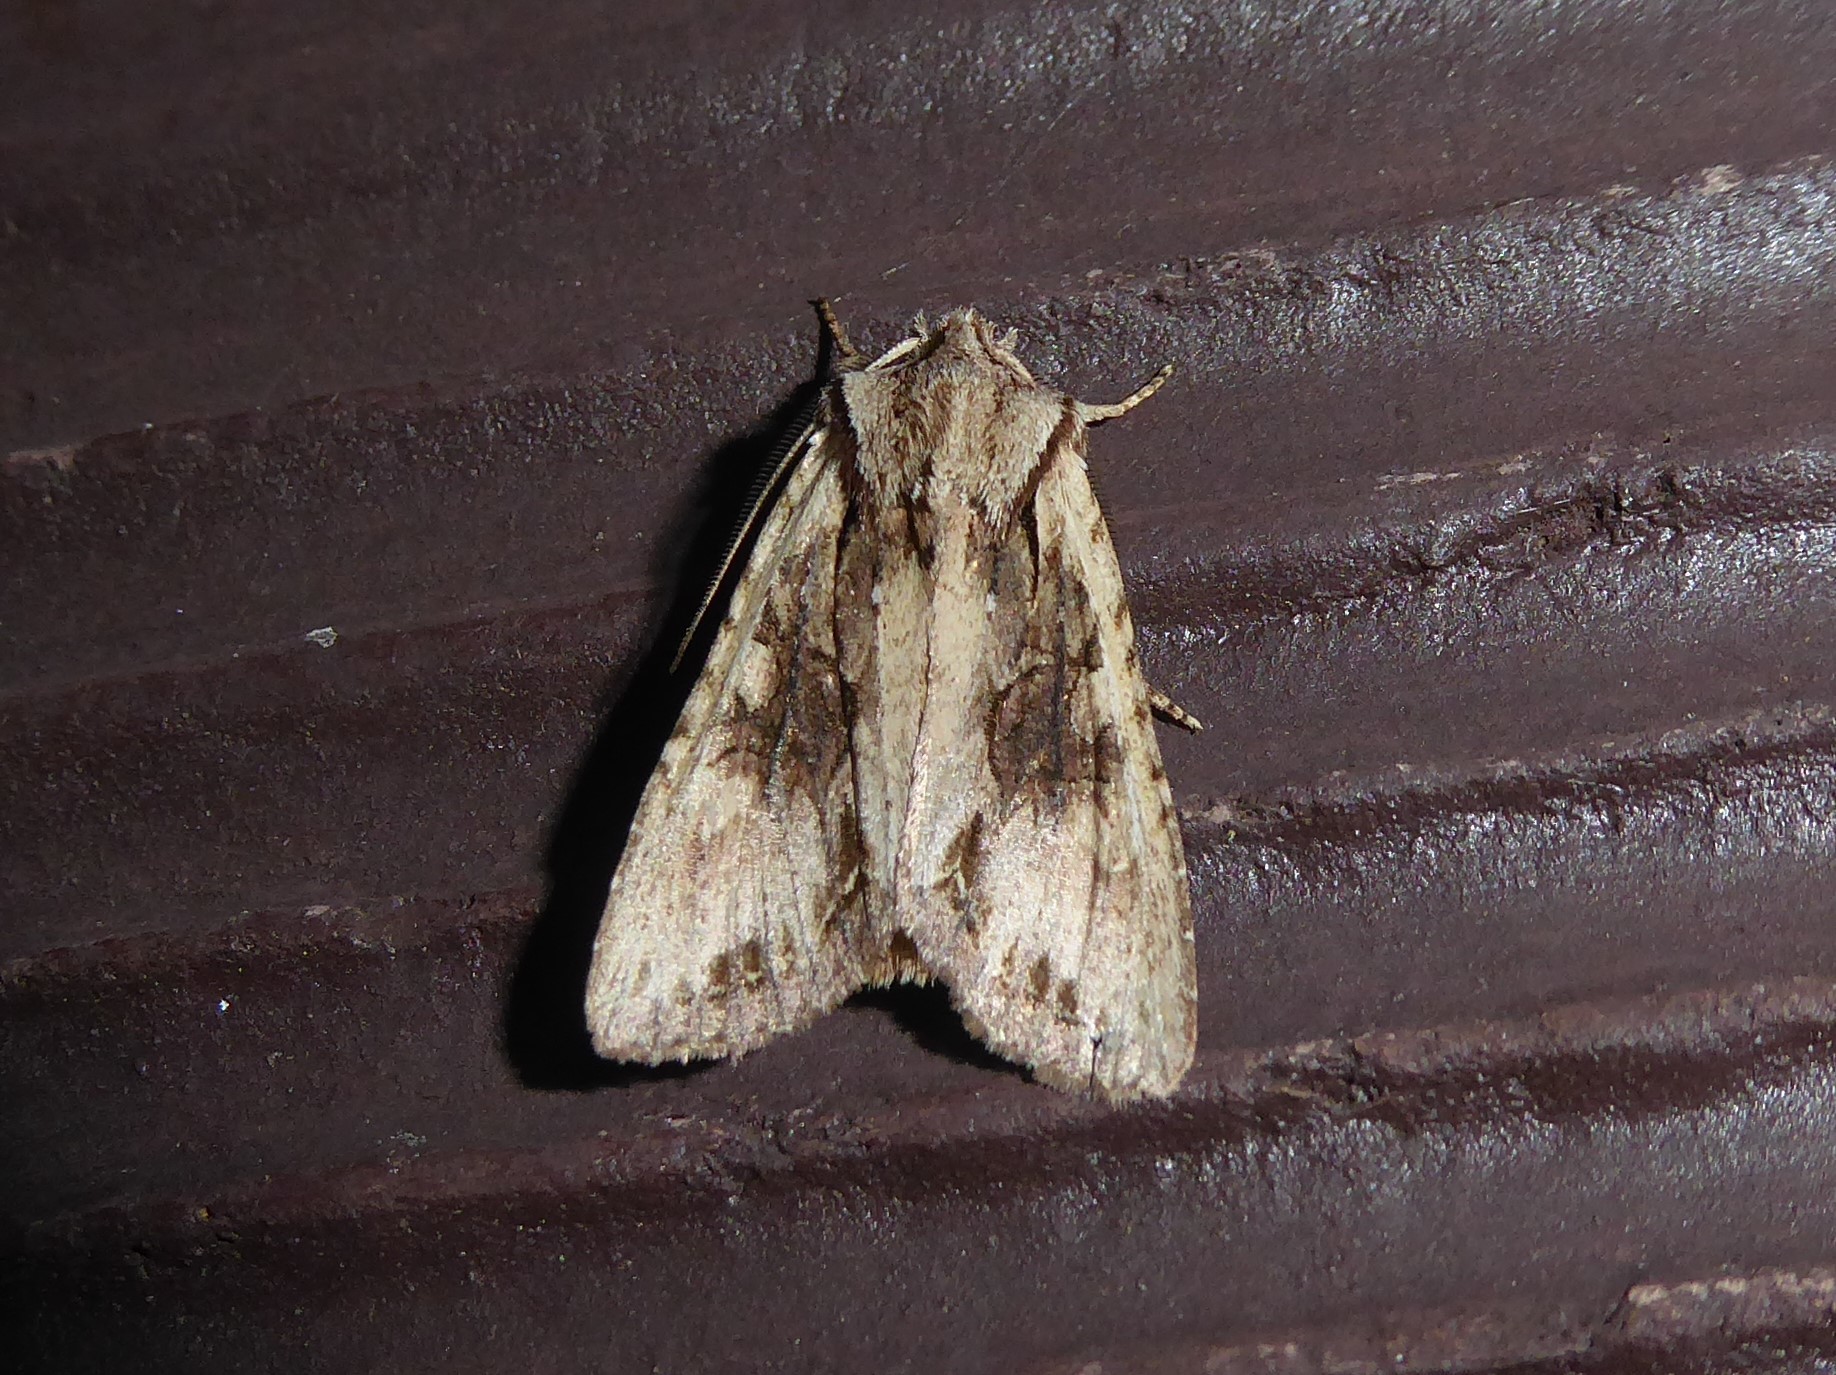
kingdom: Animalia
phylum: Arthropoda
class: Insecta
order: Lepidoptera
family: Noctuidae
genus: Ichneutica
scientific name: Ichneutica mutans
